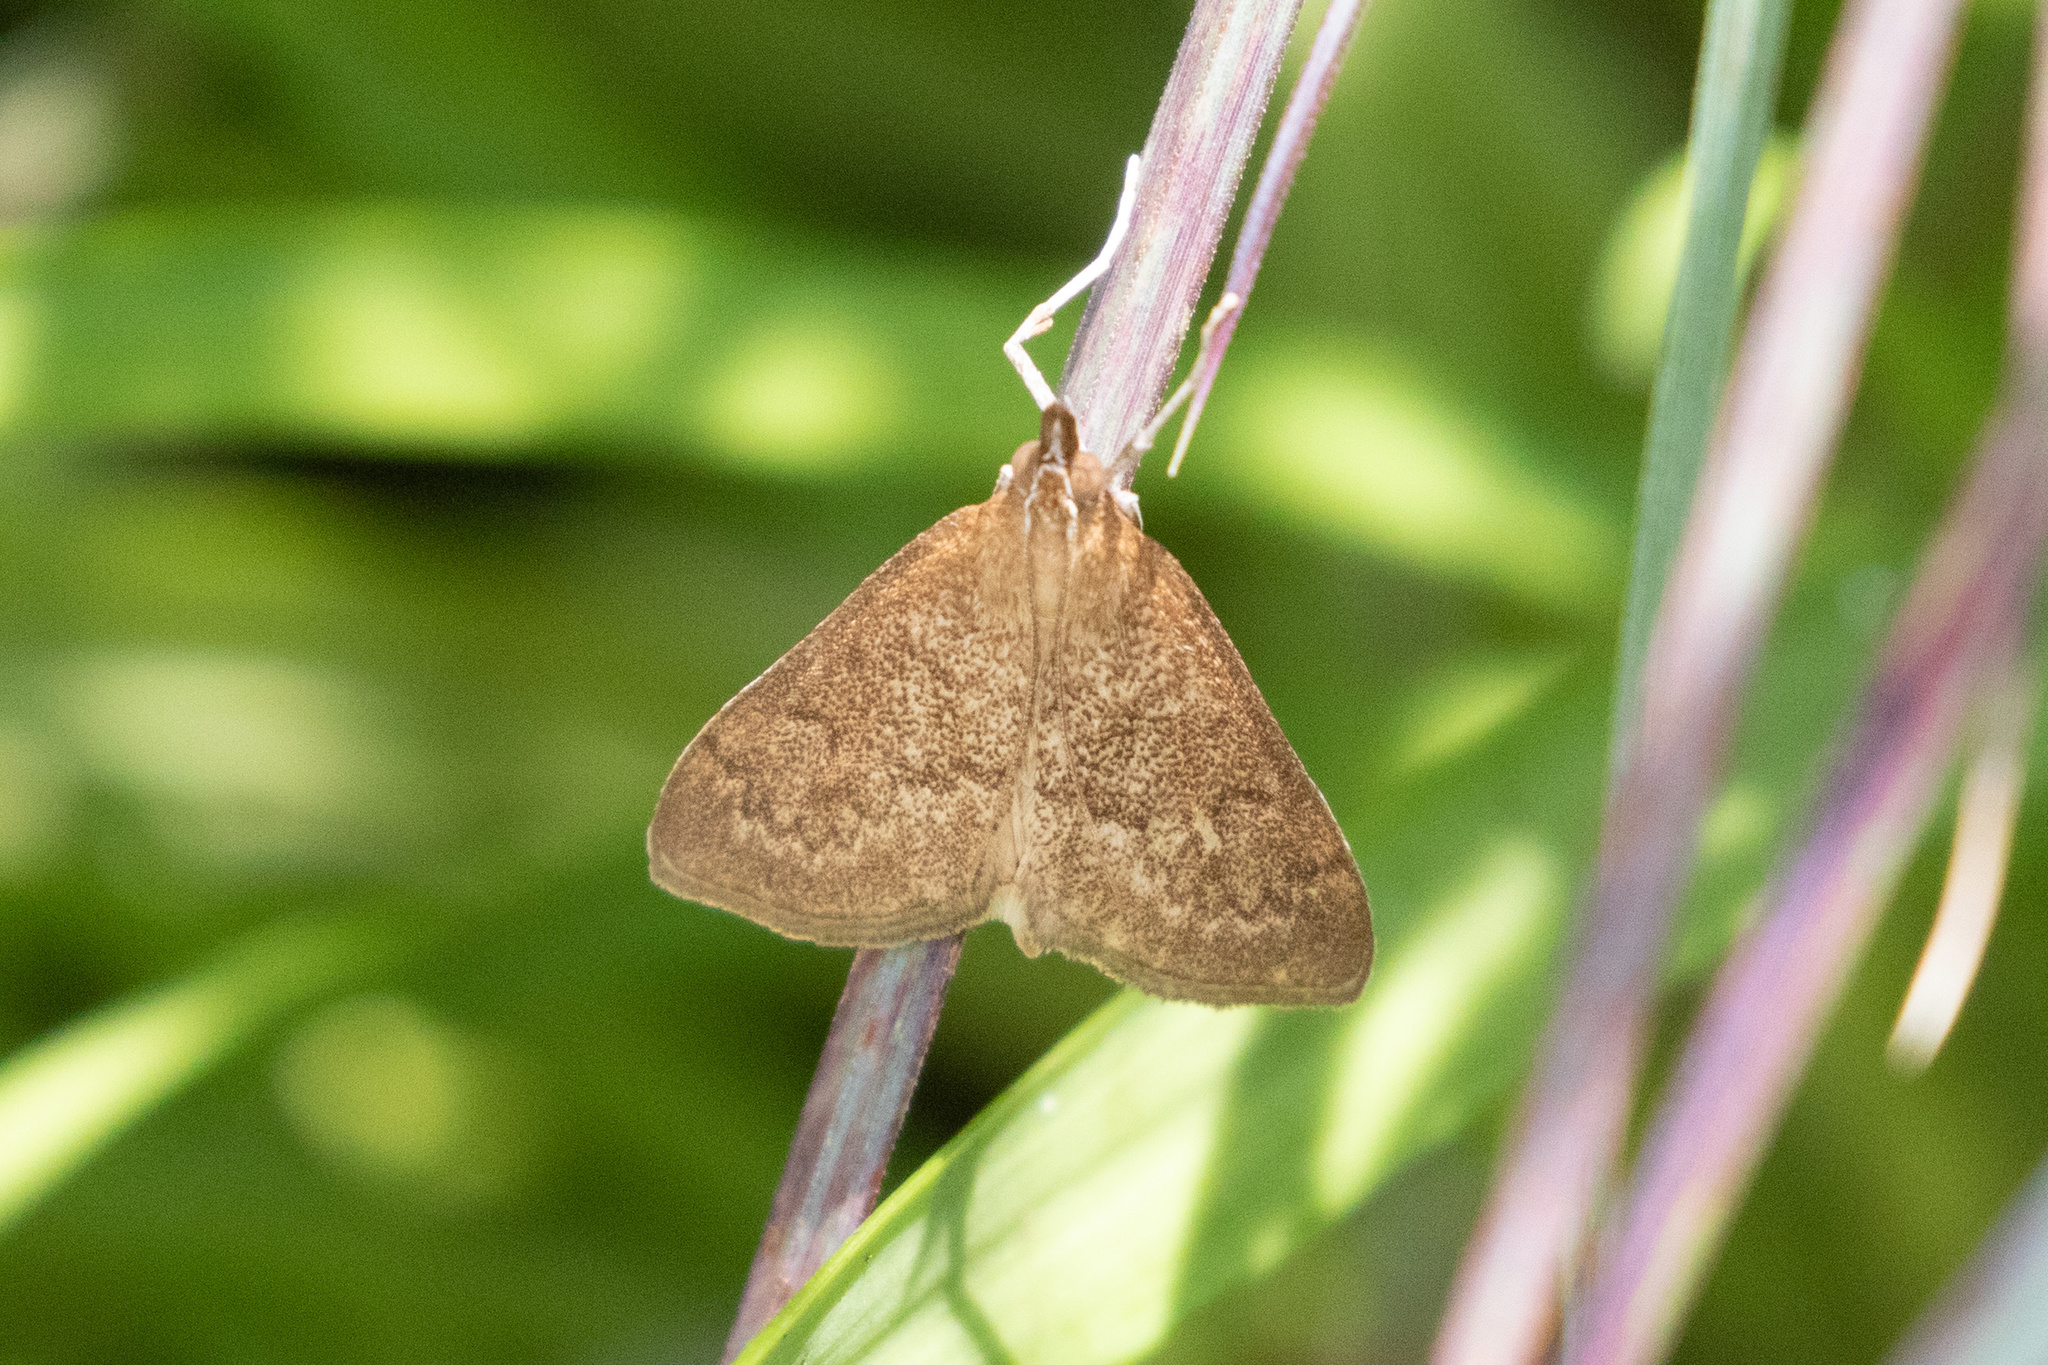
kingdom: Animalia
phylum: Arthropoda
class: Insecta
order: Lepidoptera
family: Crambidae
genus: Saucrobotys
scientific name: Saucrobotys futilalis
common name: Dogbane saucrobotys moth
